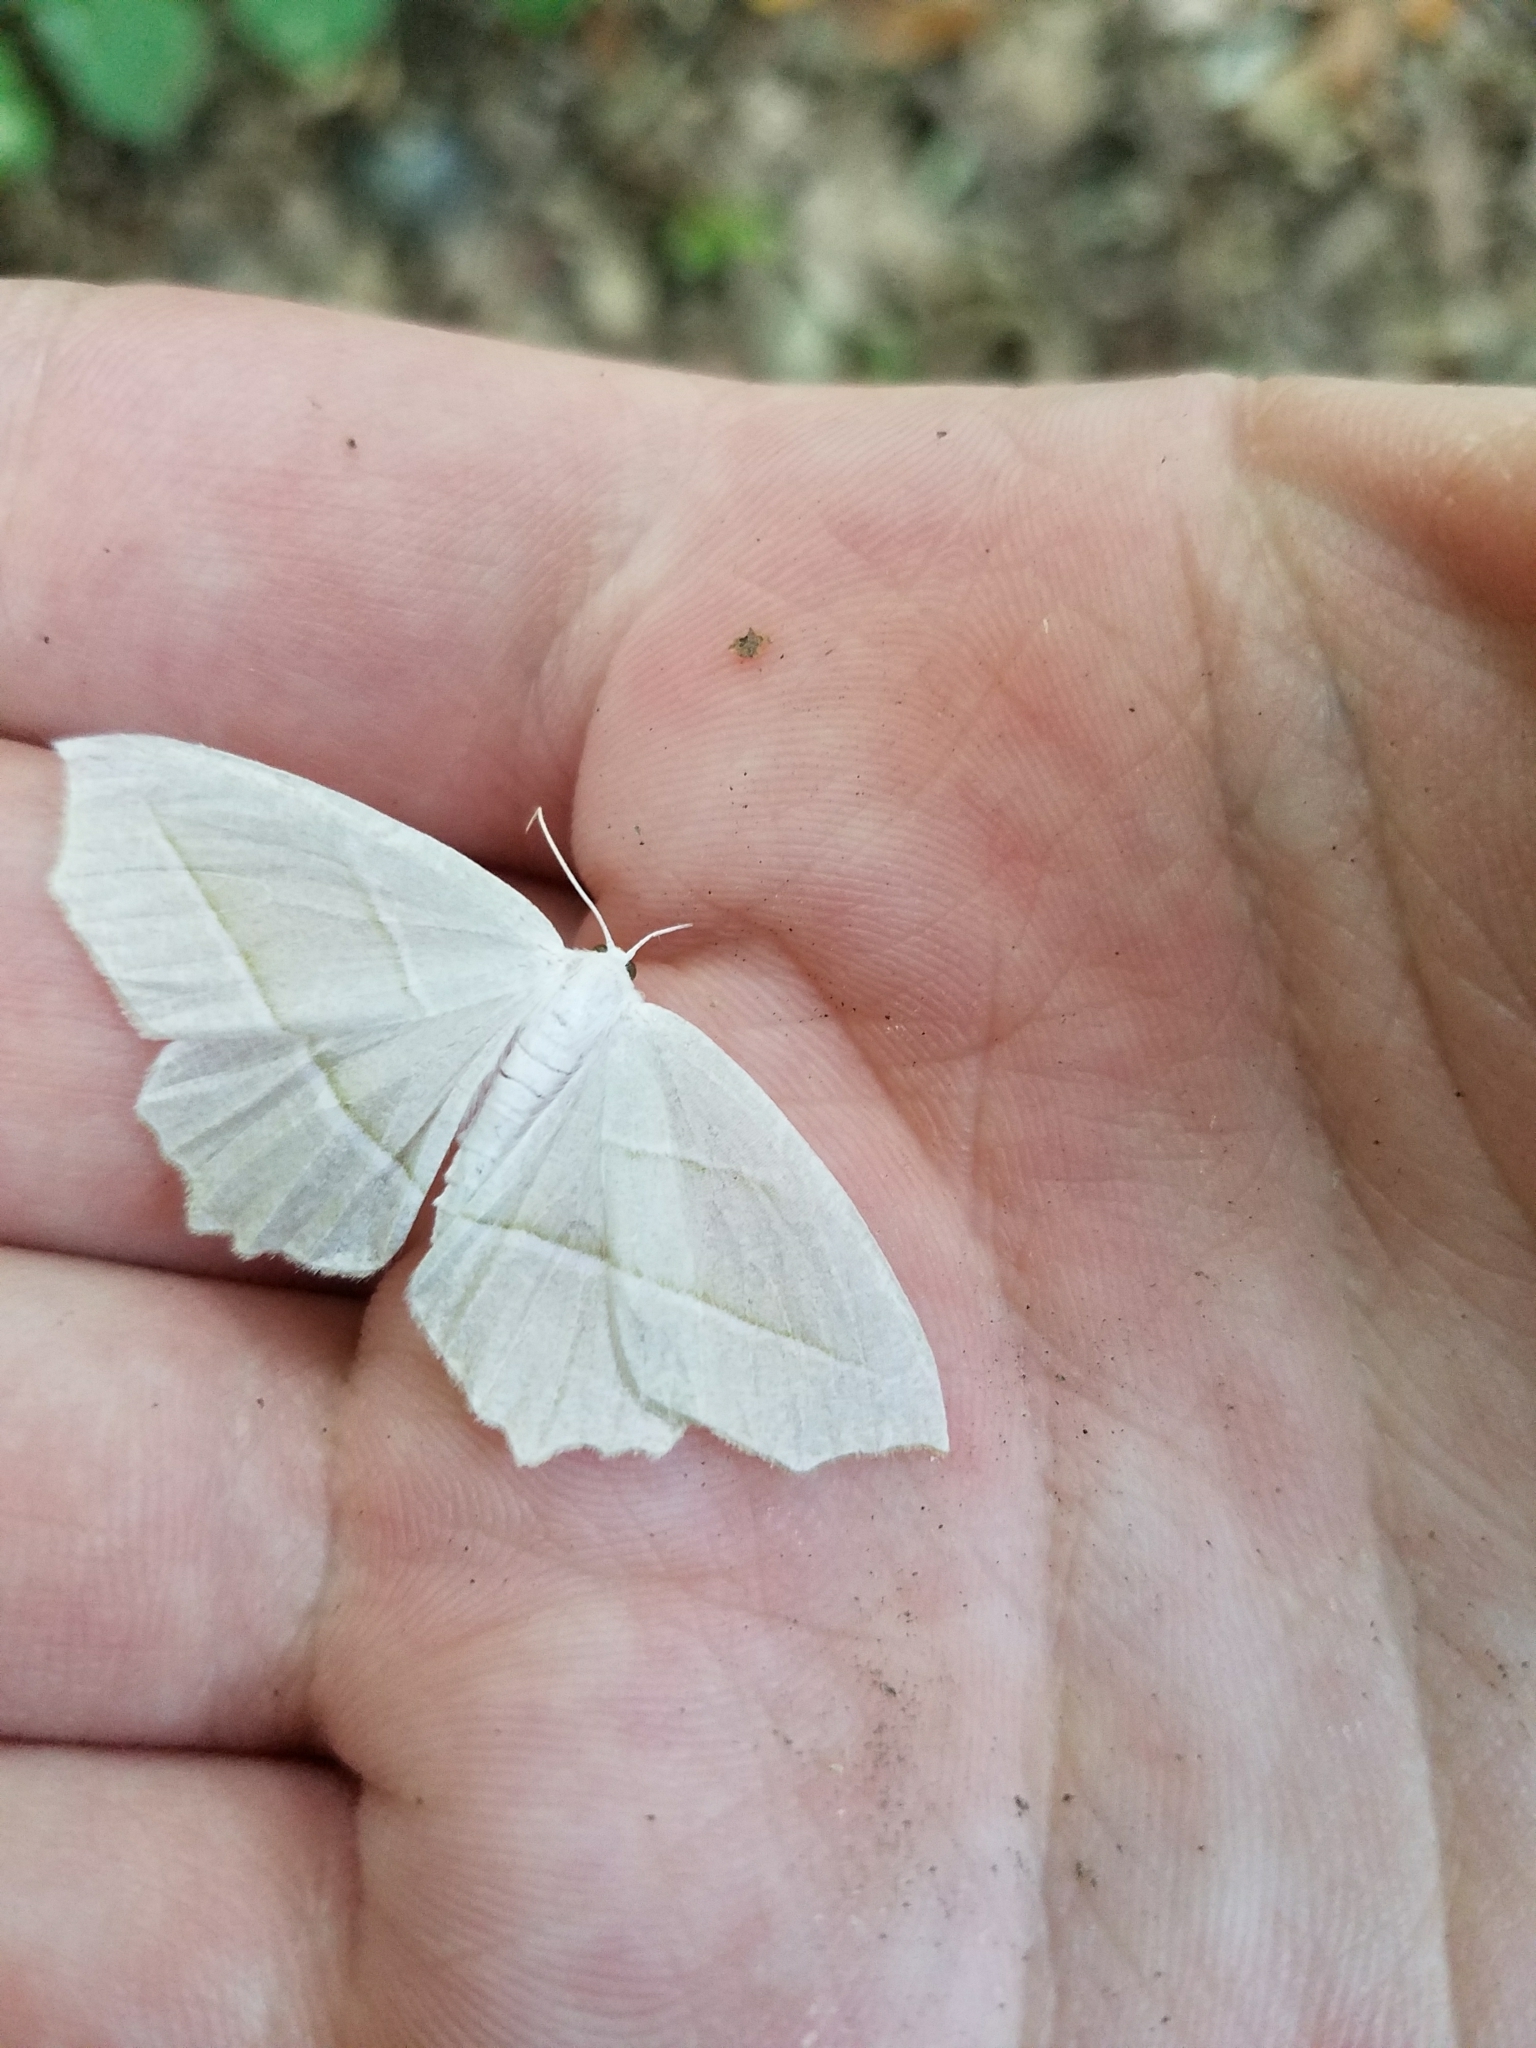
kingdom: Animalia
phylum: Arthropoda
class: Insecta
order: Lepidoptera
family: Geometridae
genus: Campaea
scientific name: Campaea perlata
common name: Fringed looper
